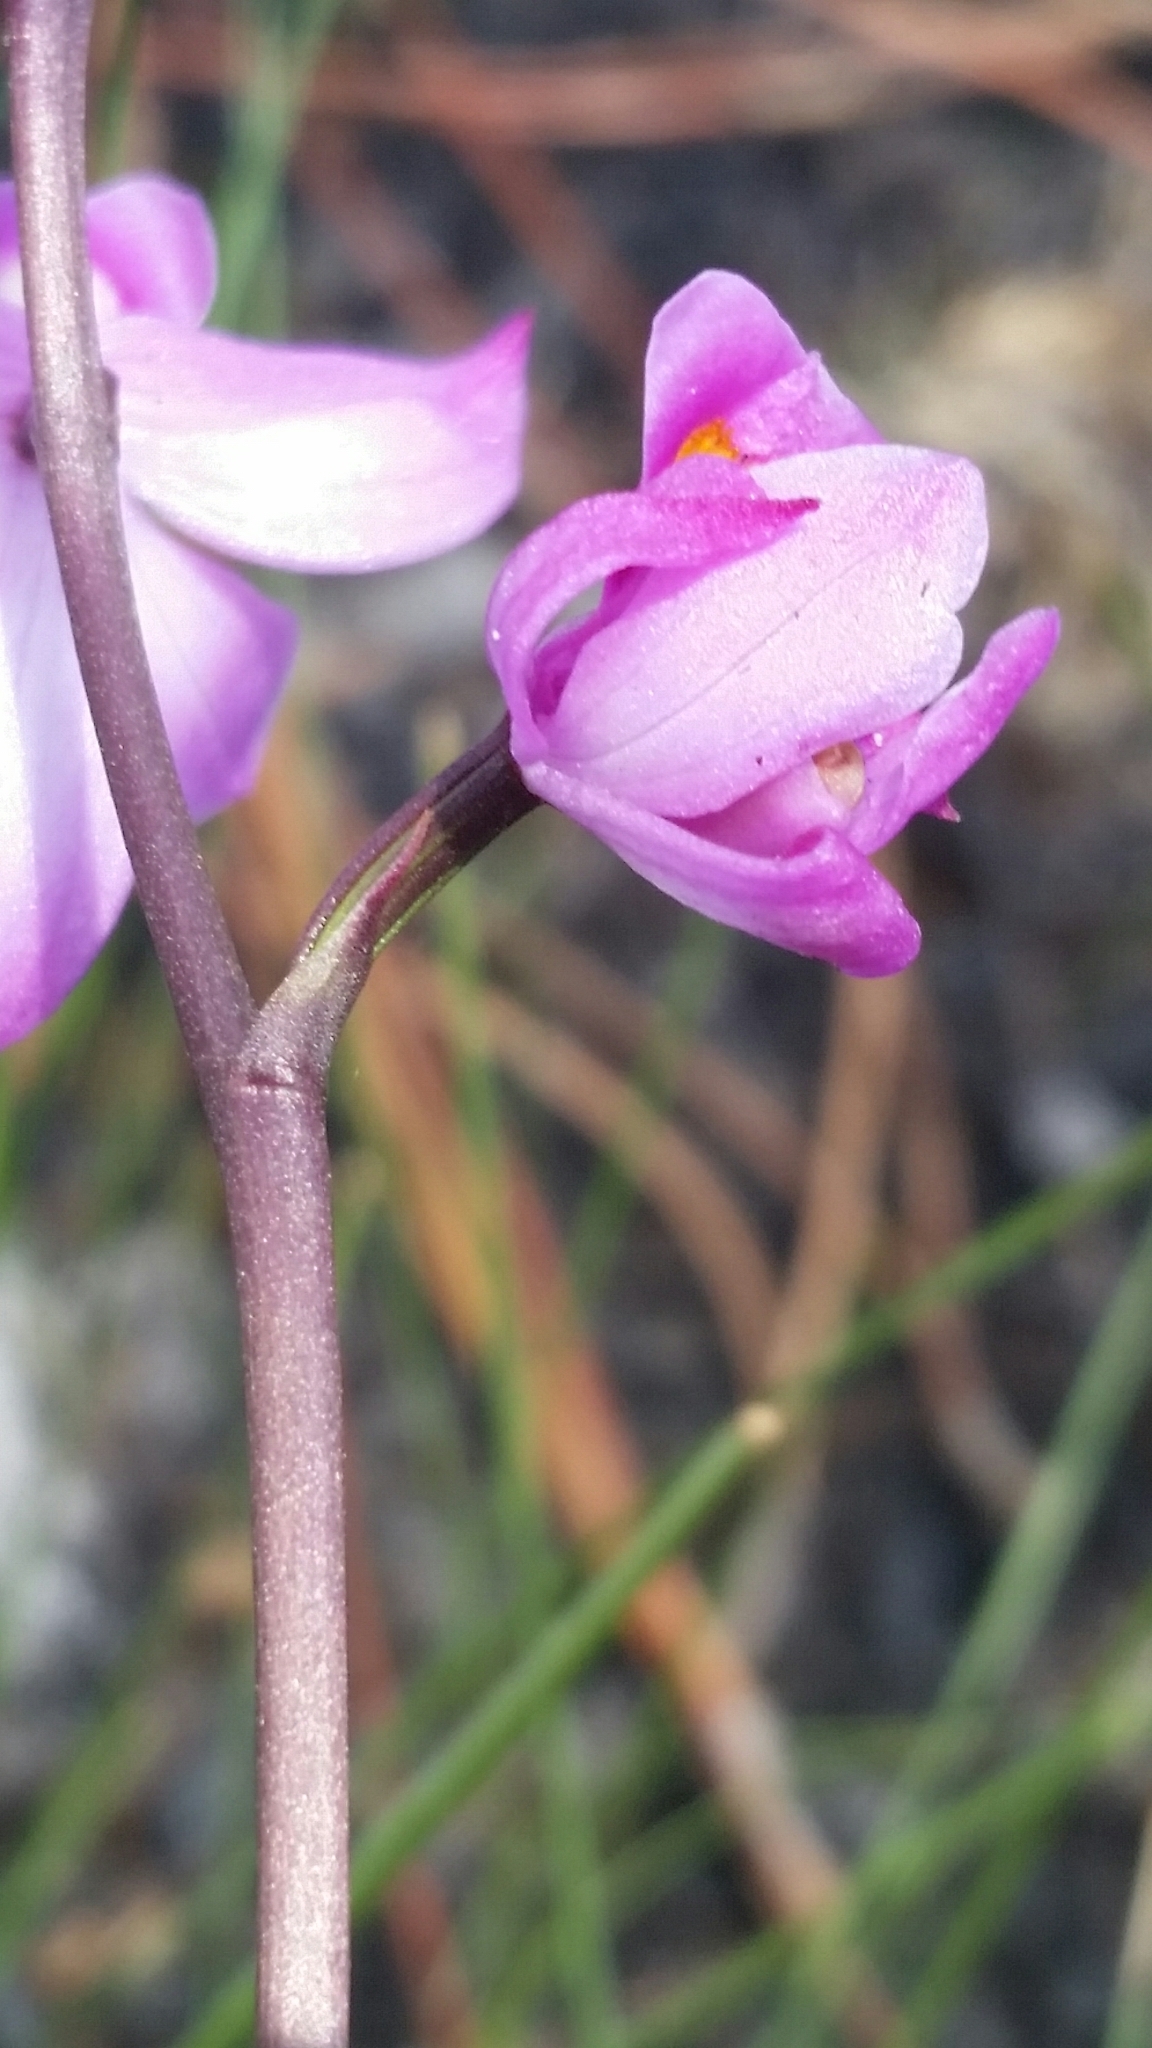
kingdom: Plantae
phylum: Tracheophyta
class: Liliopsida
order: Asparagales
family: Orchidaceae
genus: Calopogon
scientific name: Calopogon multiflorus
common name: Many-flowered grass-pink orchid
